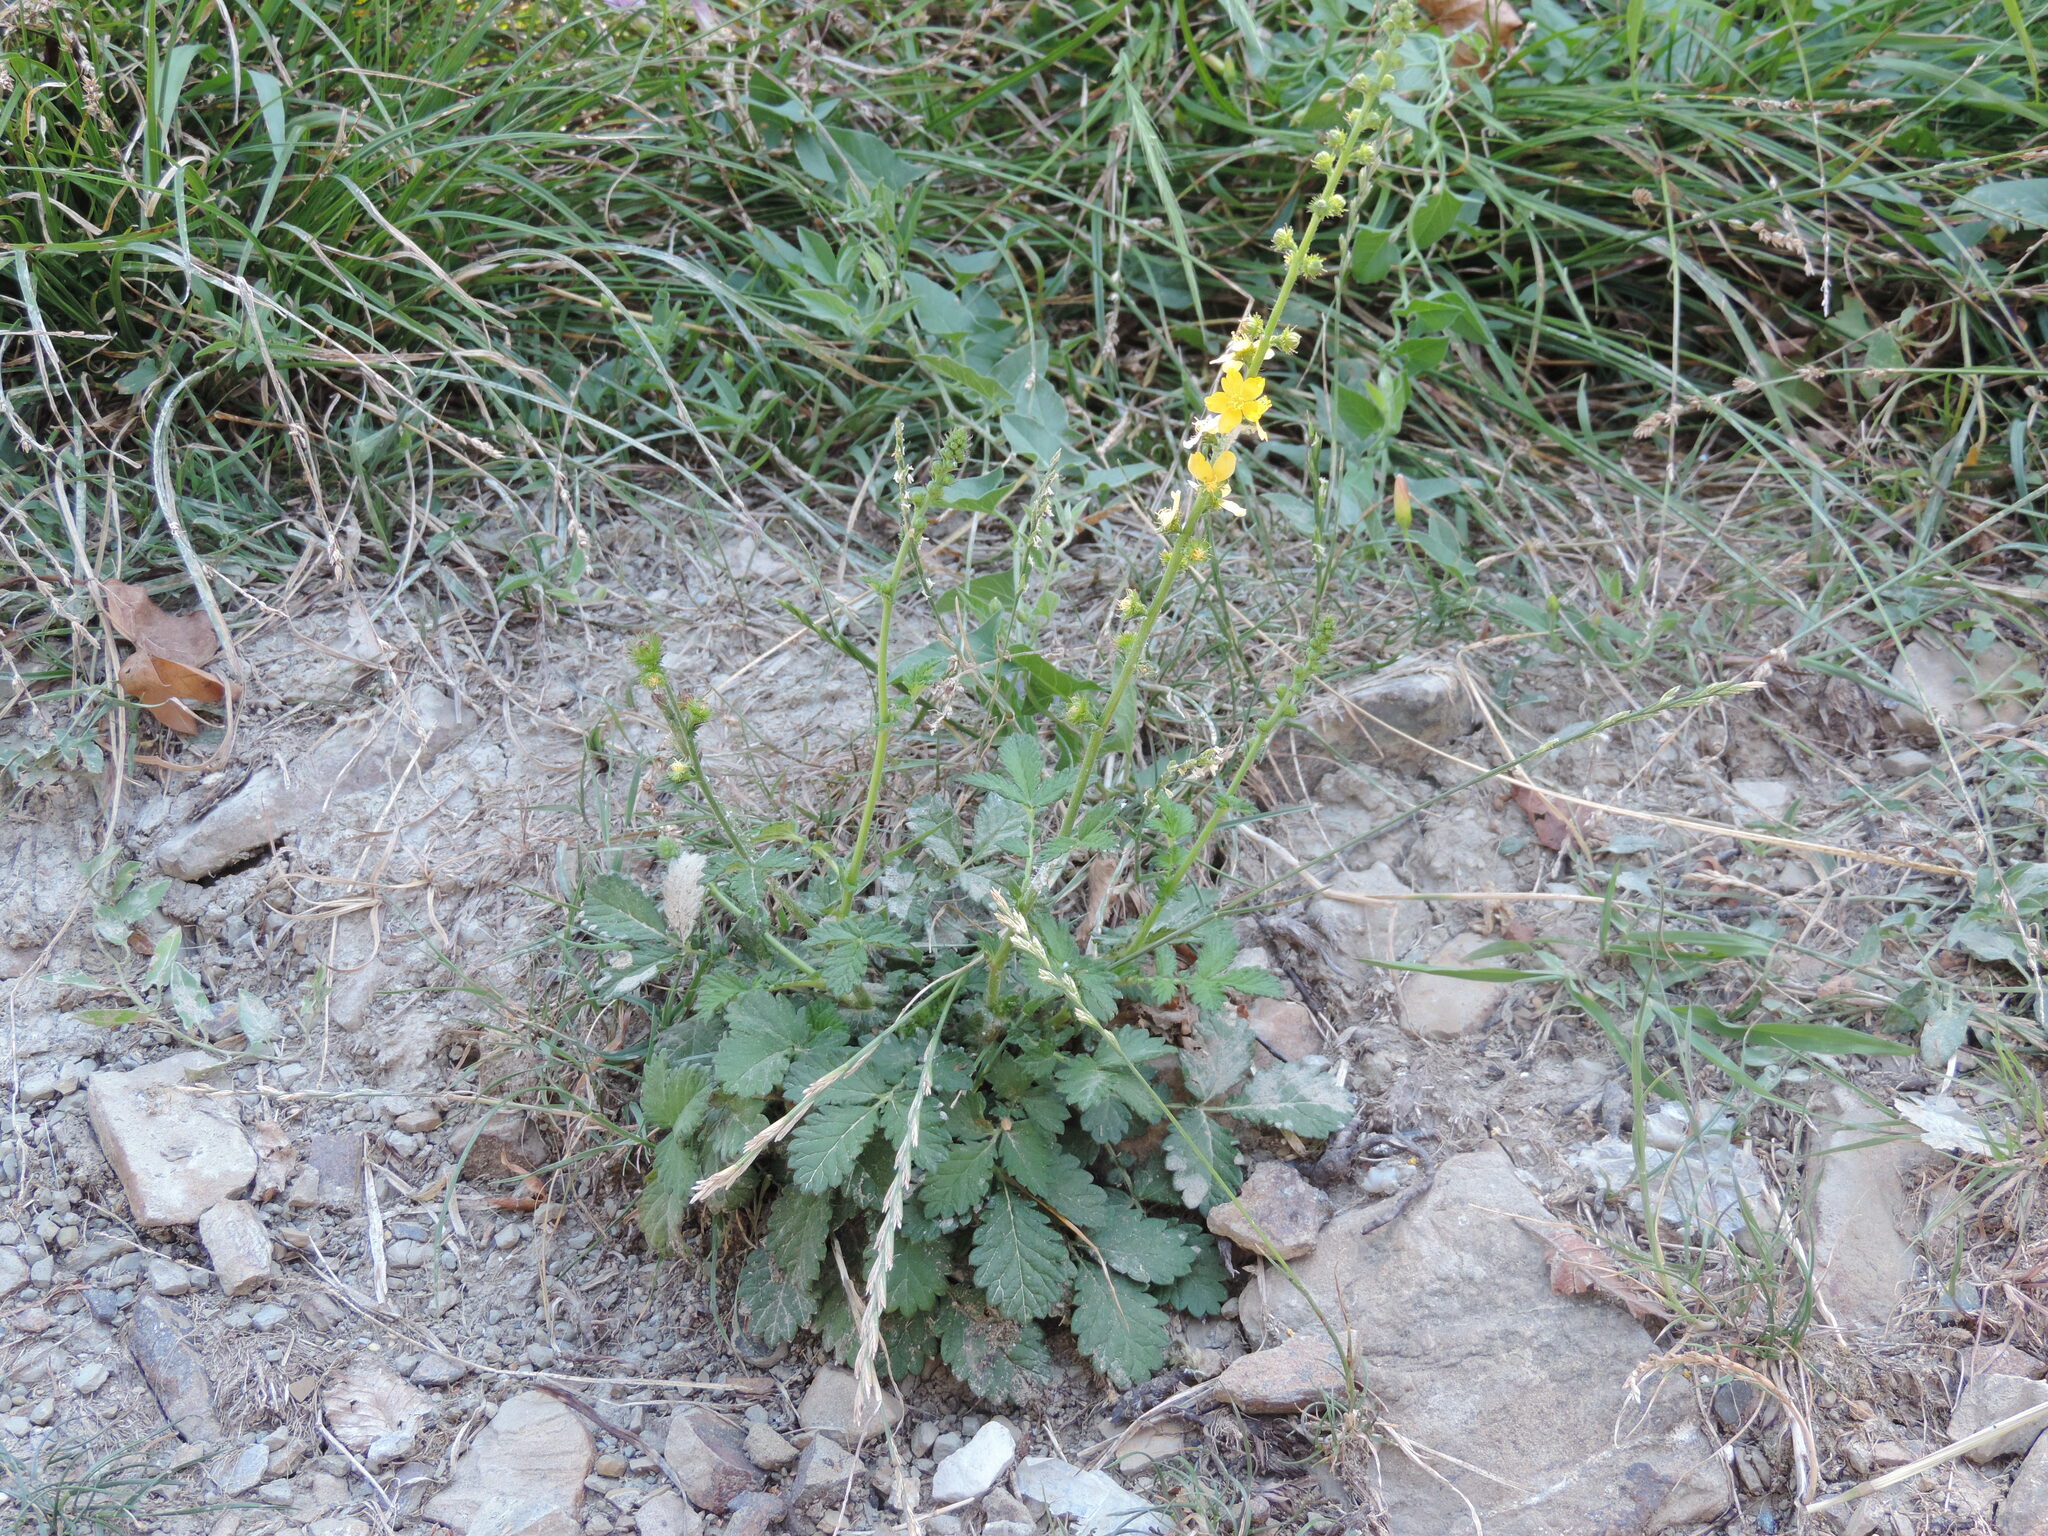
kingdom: Plantae
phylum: Tracheophyta
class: Magnoliopsida
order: Rosales
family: Rosaceae
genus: Agrimonia
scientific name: Agrimonia eupatoria
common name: Agrimony
